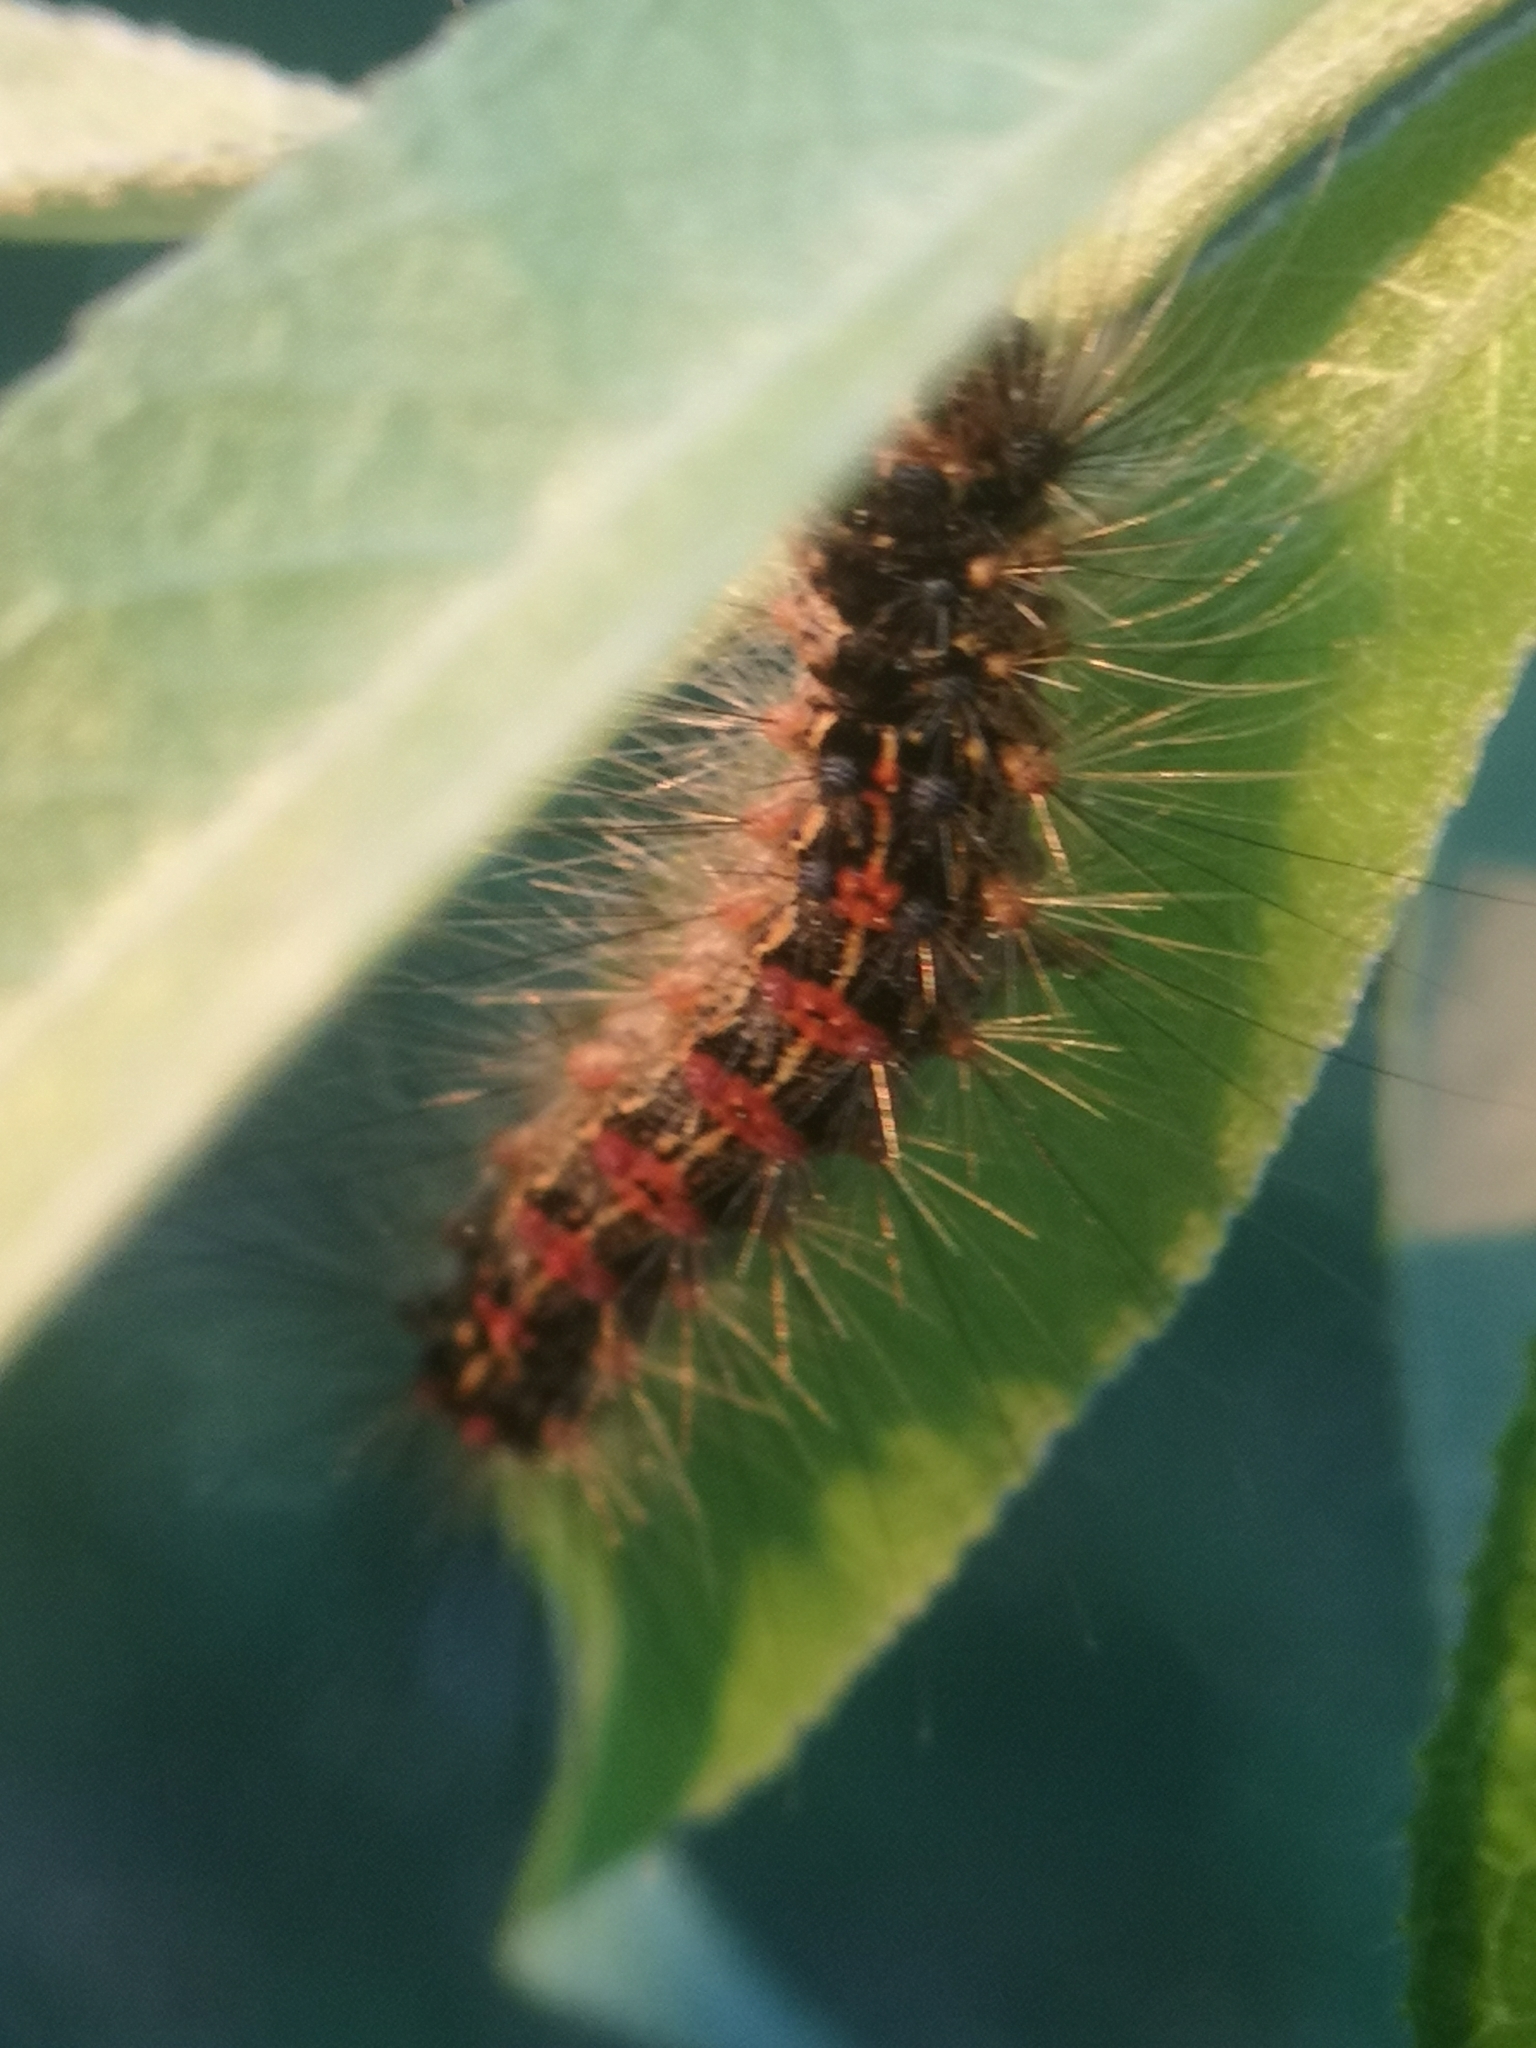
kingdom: Animalia
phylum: Arthropoda
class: Insecta
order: Lepidoptera
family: Erebidae
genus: Lymantria
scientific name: Lymantria dispar
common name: Gypsy moth
